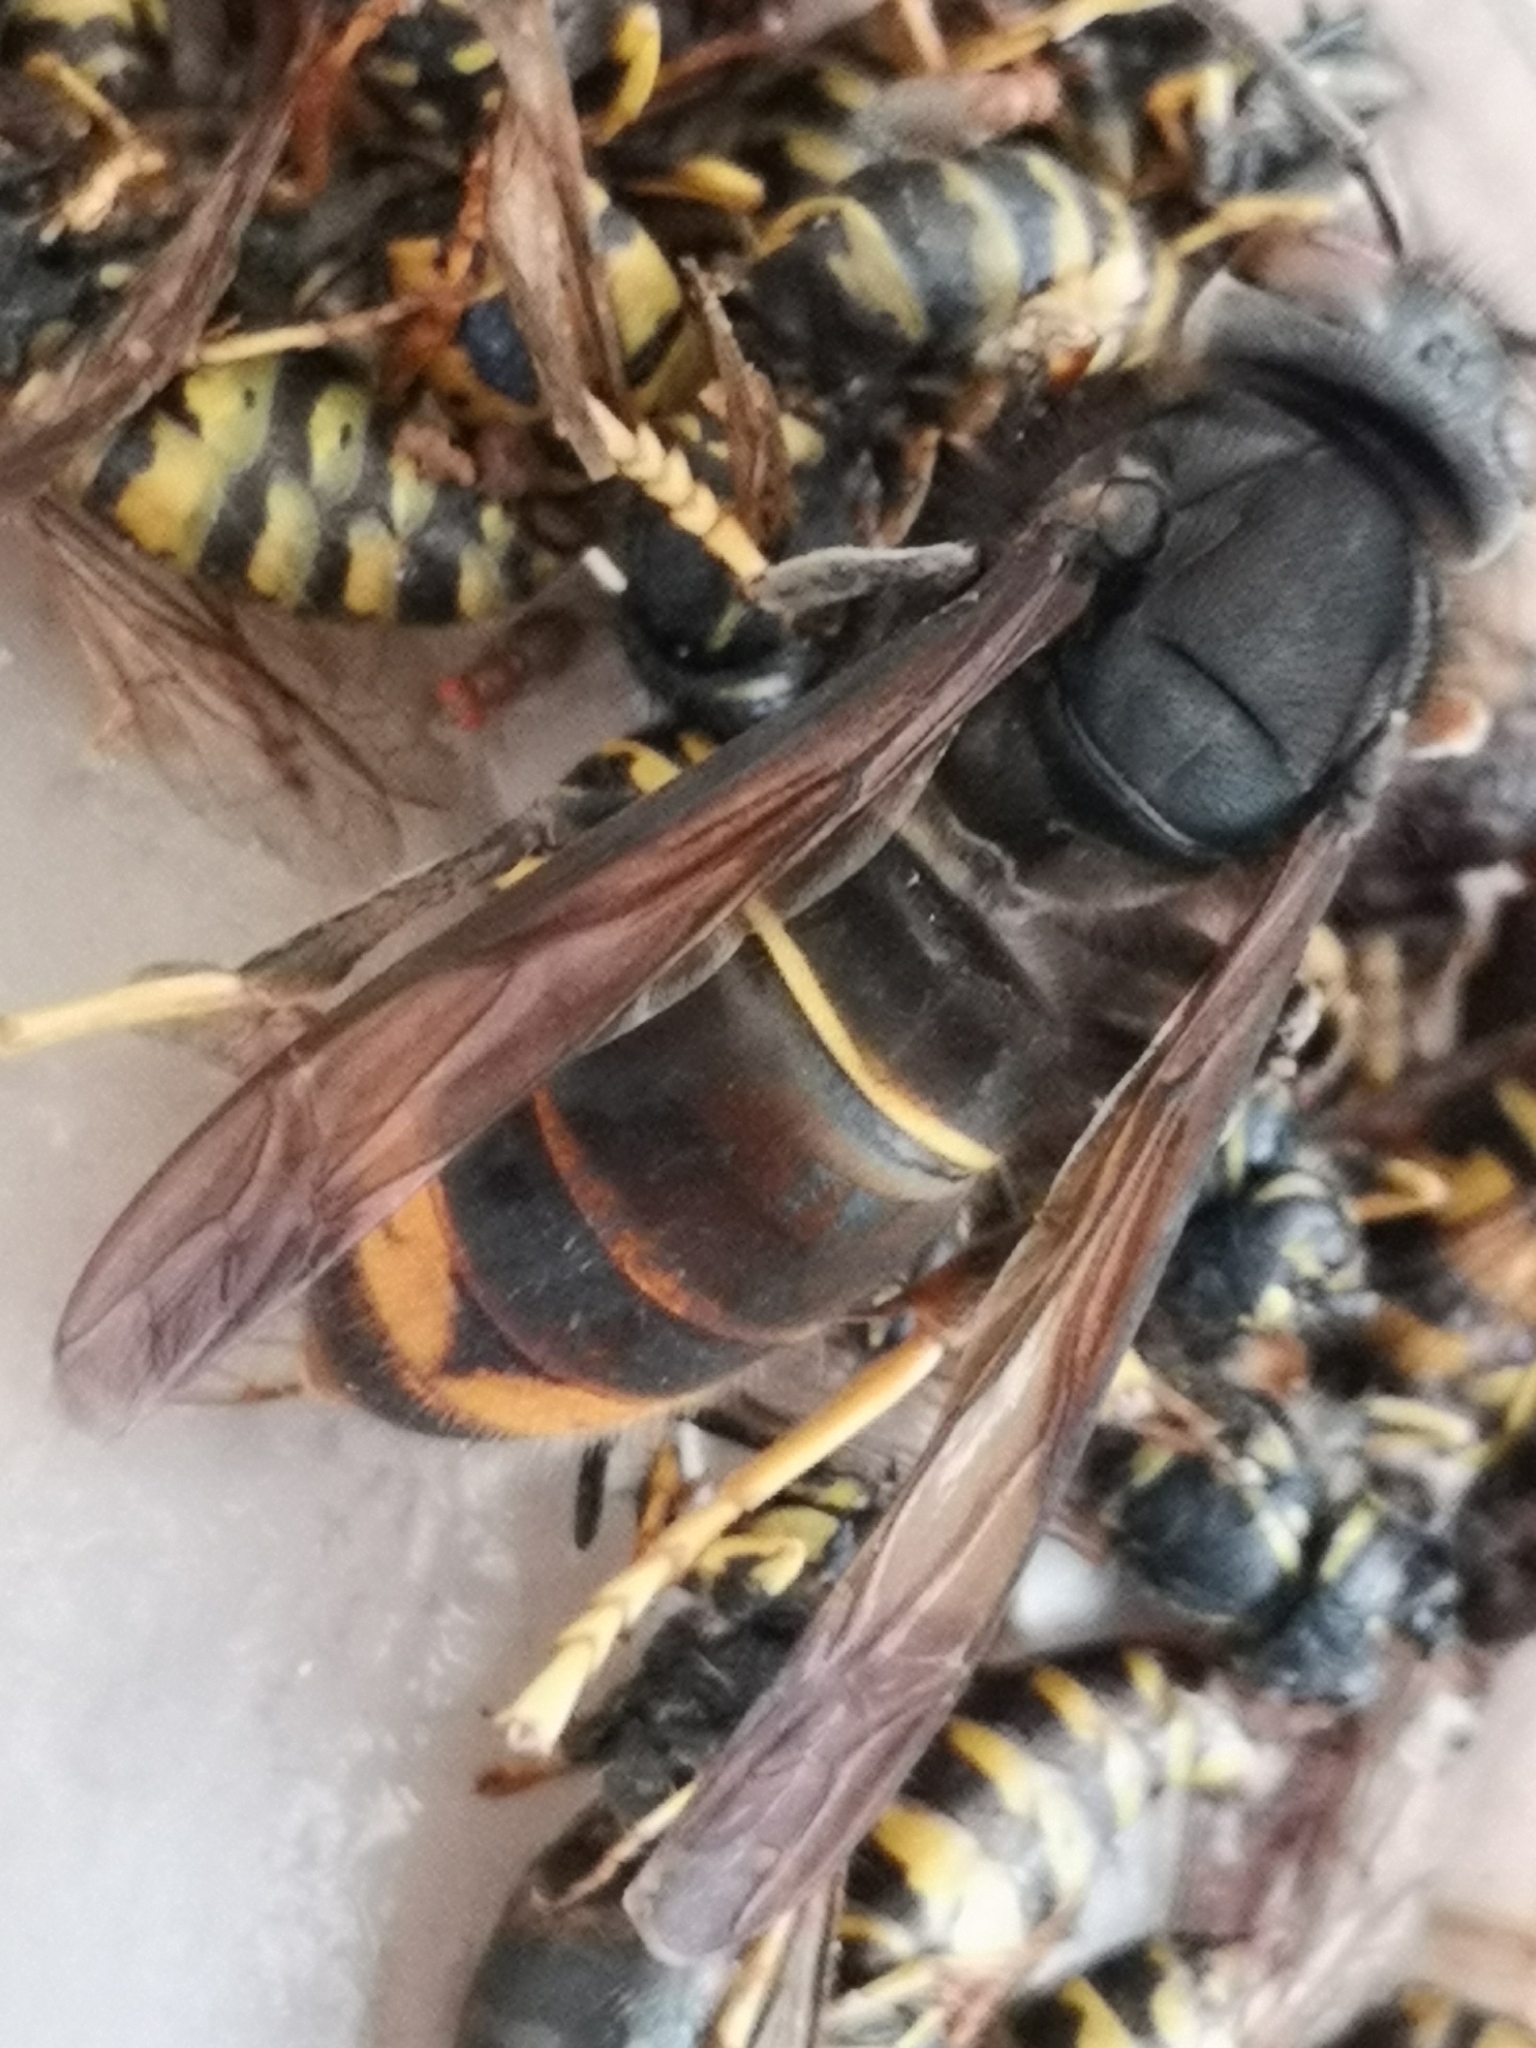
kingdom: Animalia
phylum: Arthropoda
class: Insecta
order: Hymenoptera
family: Vespidae
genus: Vespa
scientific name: Vespa velutina
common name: Asian hornet
